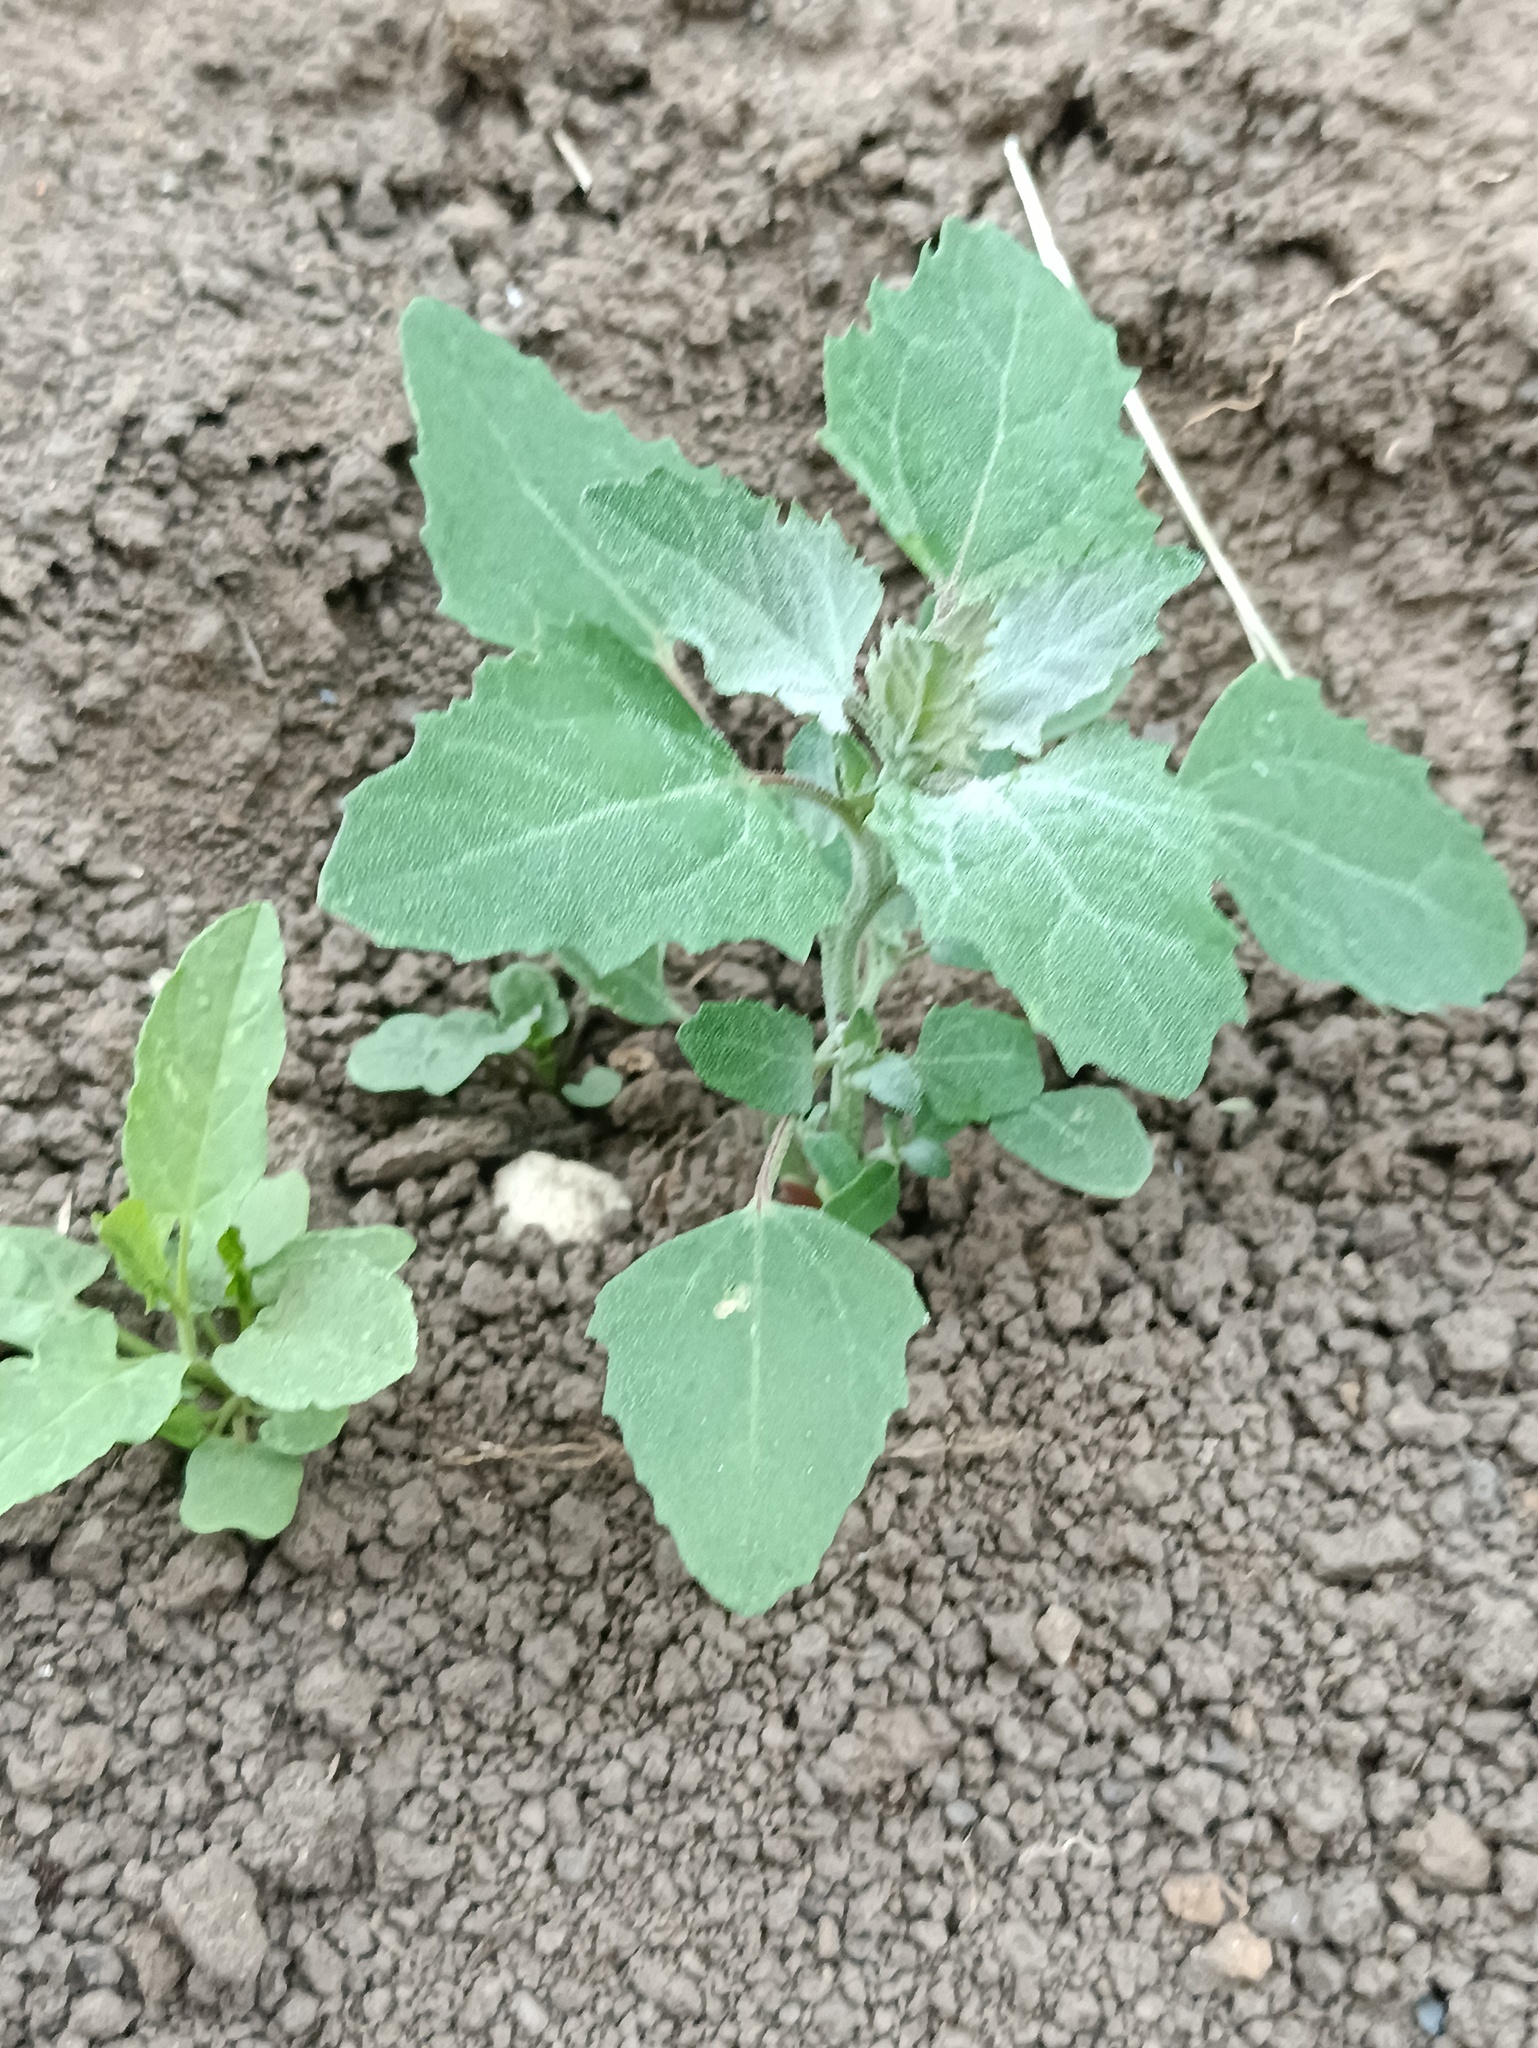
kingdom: Plantae
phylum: Tracheophyta
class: Magnoliopsida
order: Caryophyllales
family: Amaranthaceae
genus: Chenopodium
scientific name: Chenopodium album
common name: Fat-hen
